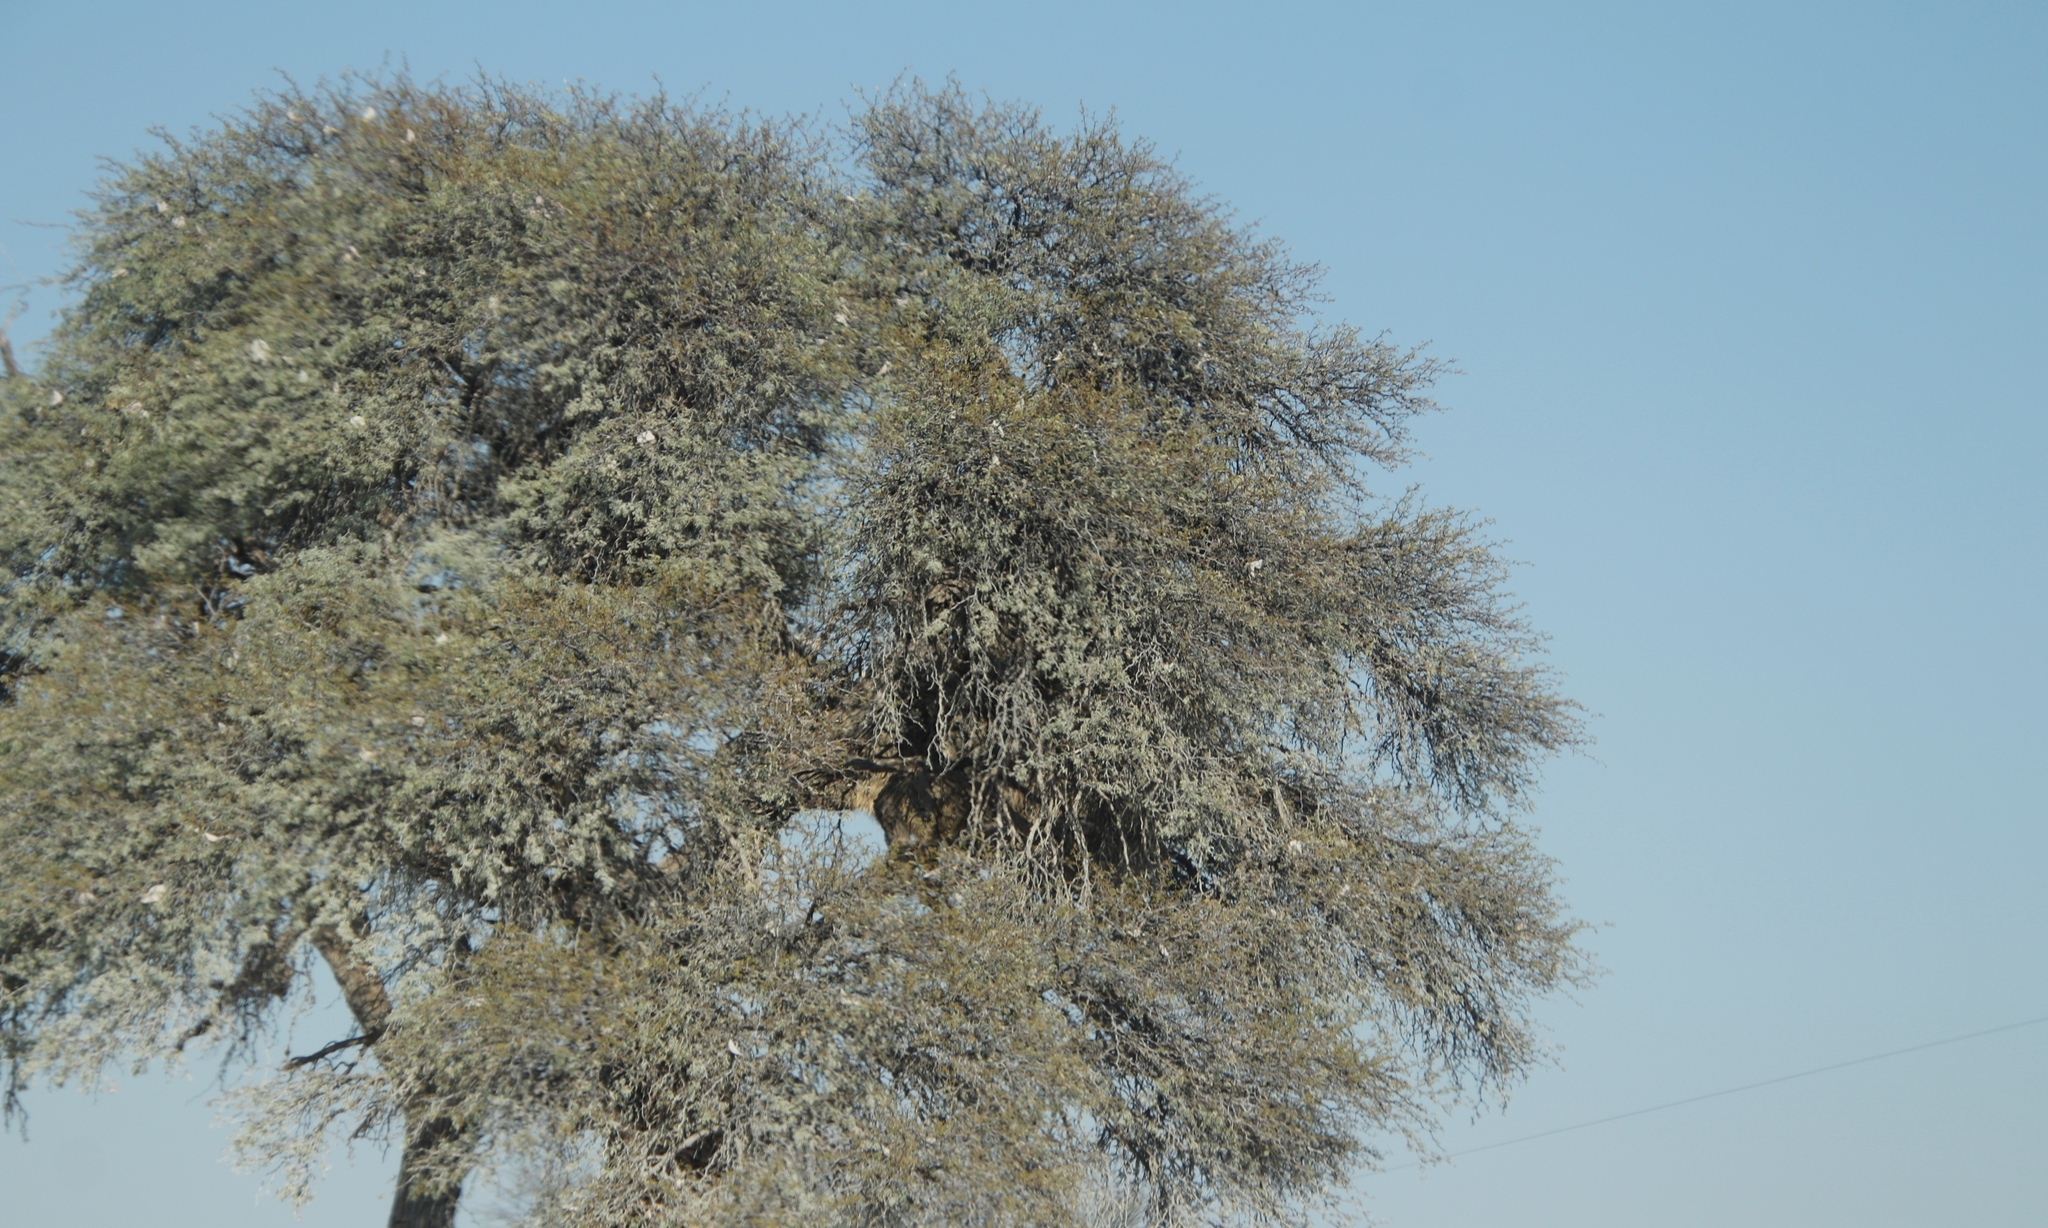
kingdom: Plantae
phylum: Tracheophyta
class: Magnoliopsida
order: Fabales
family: Fabaceae
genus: Vachellia
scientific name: Vachellia erioloba
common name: Camel thorn
